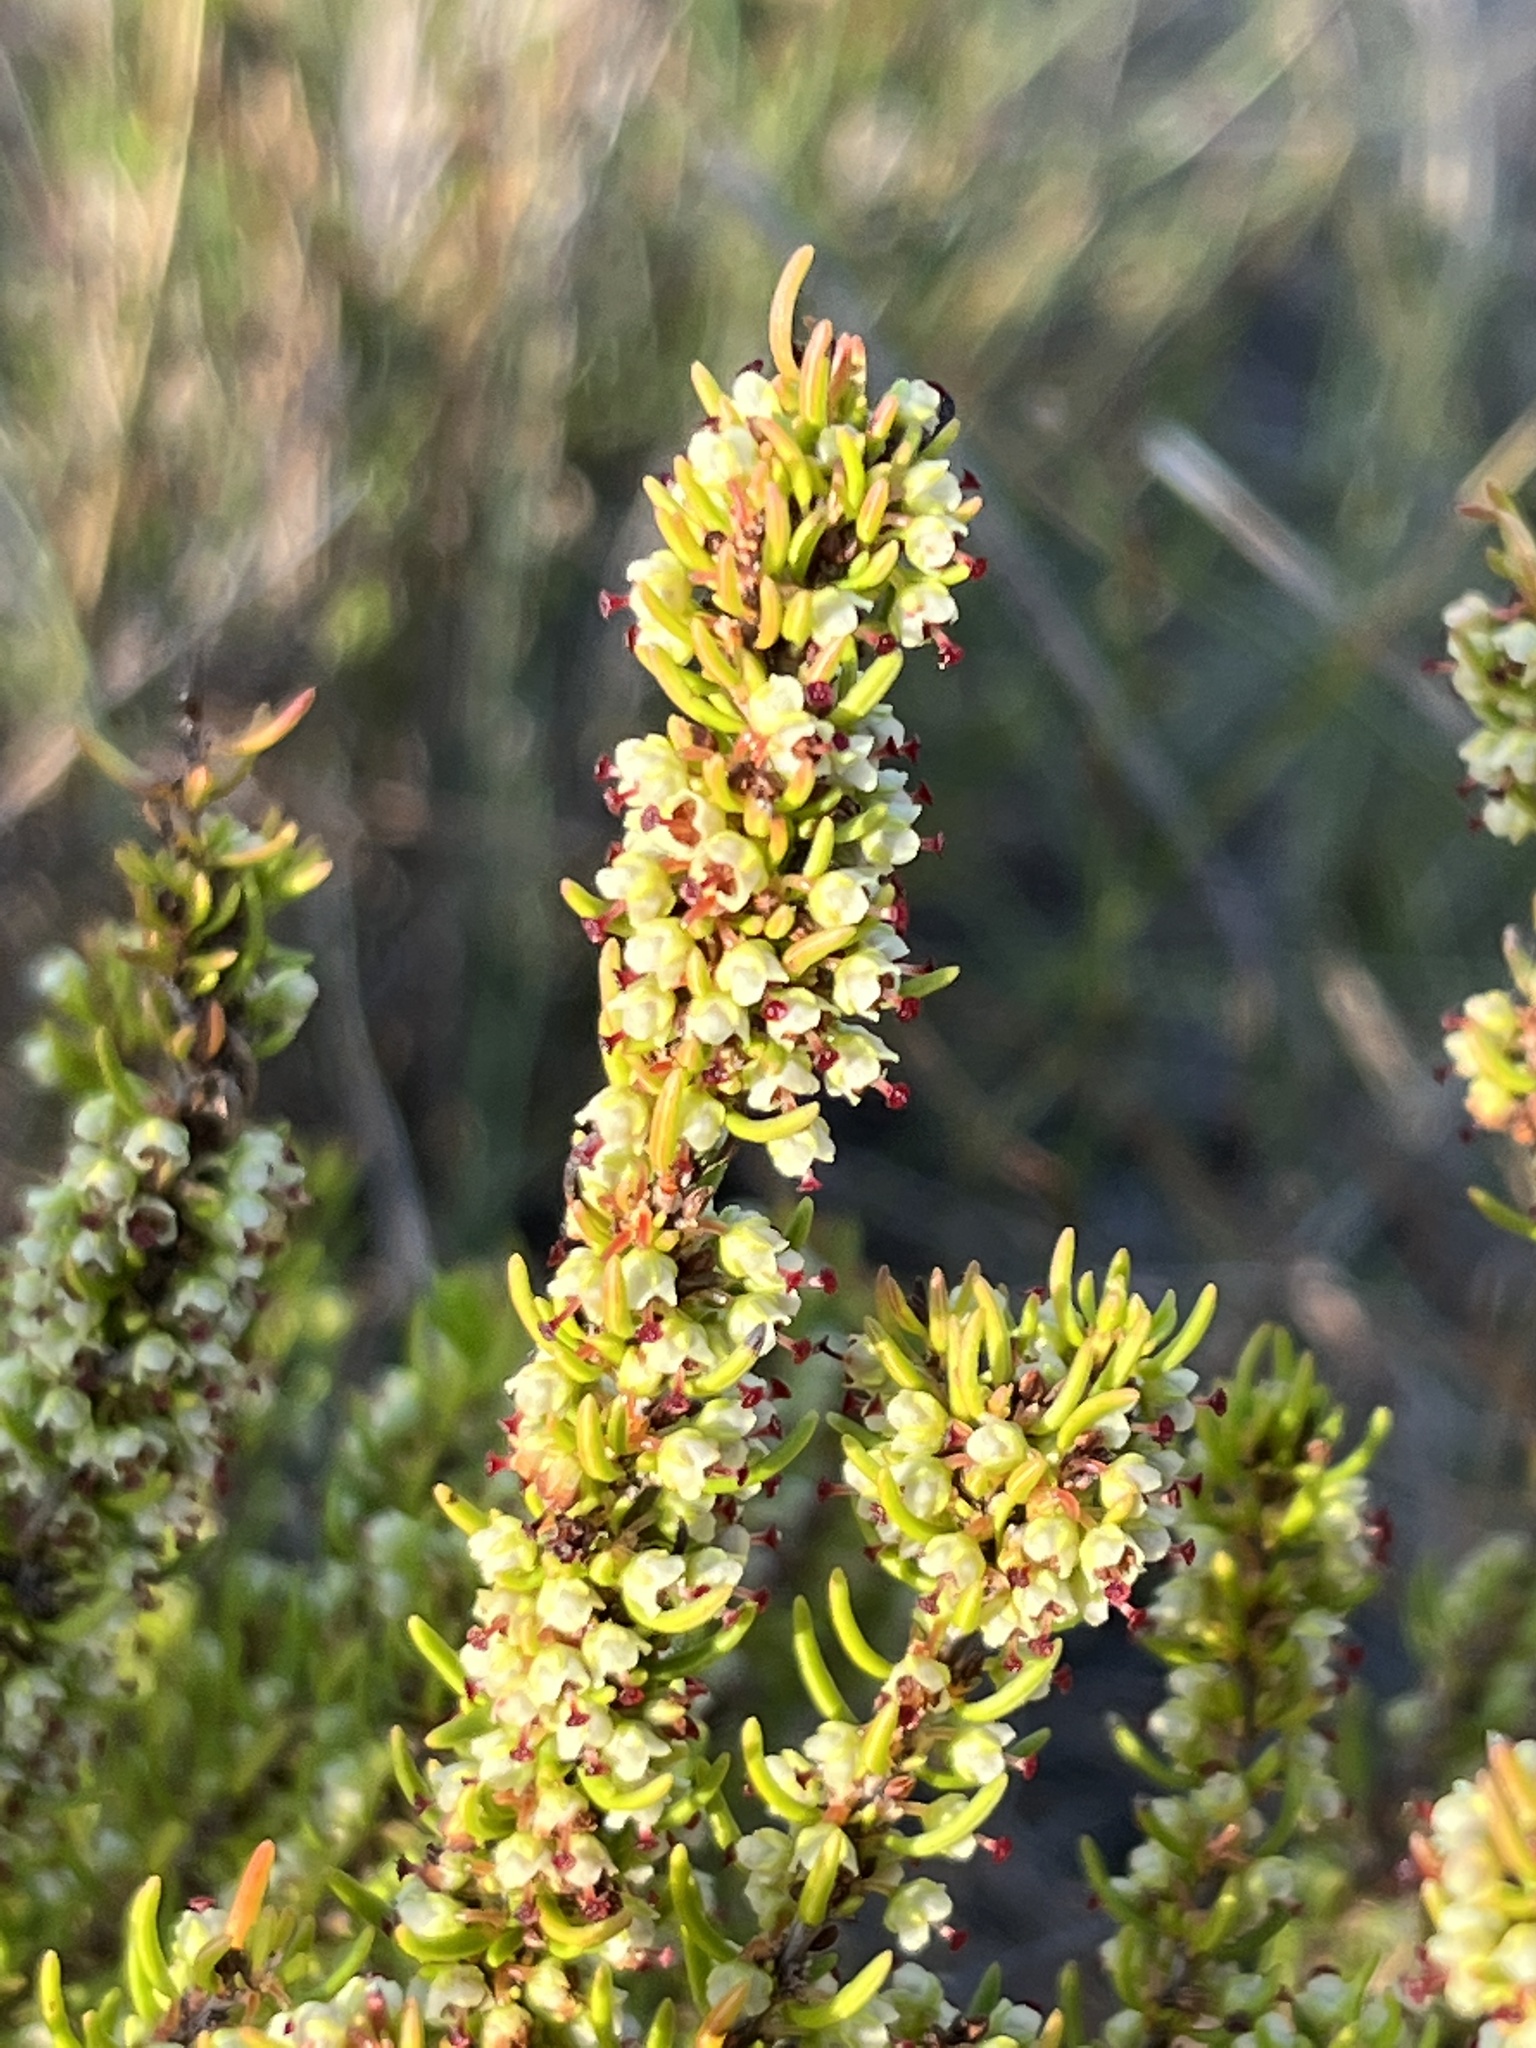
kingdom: Plantae
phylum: Tracheophyta
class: Magnoliopsida
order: Ericales
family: Ericaceae
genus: Erica
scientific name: Erica coarctata
